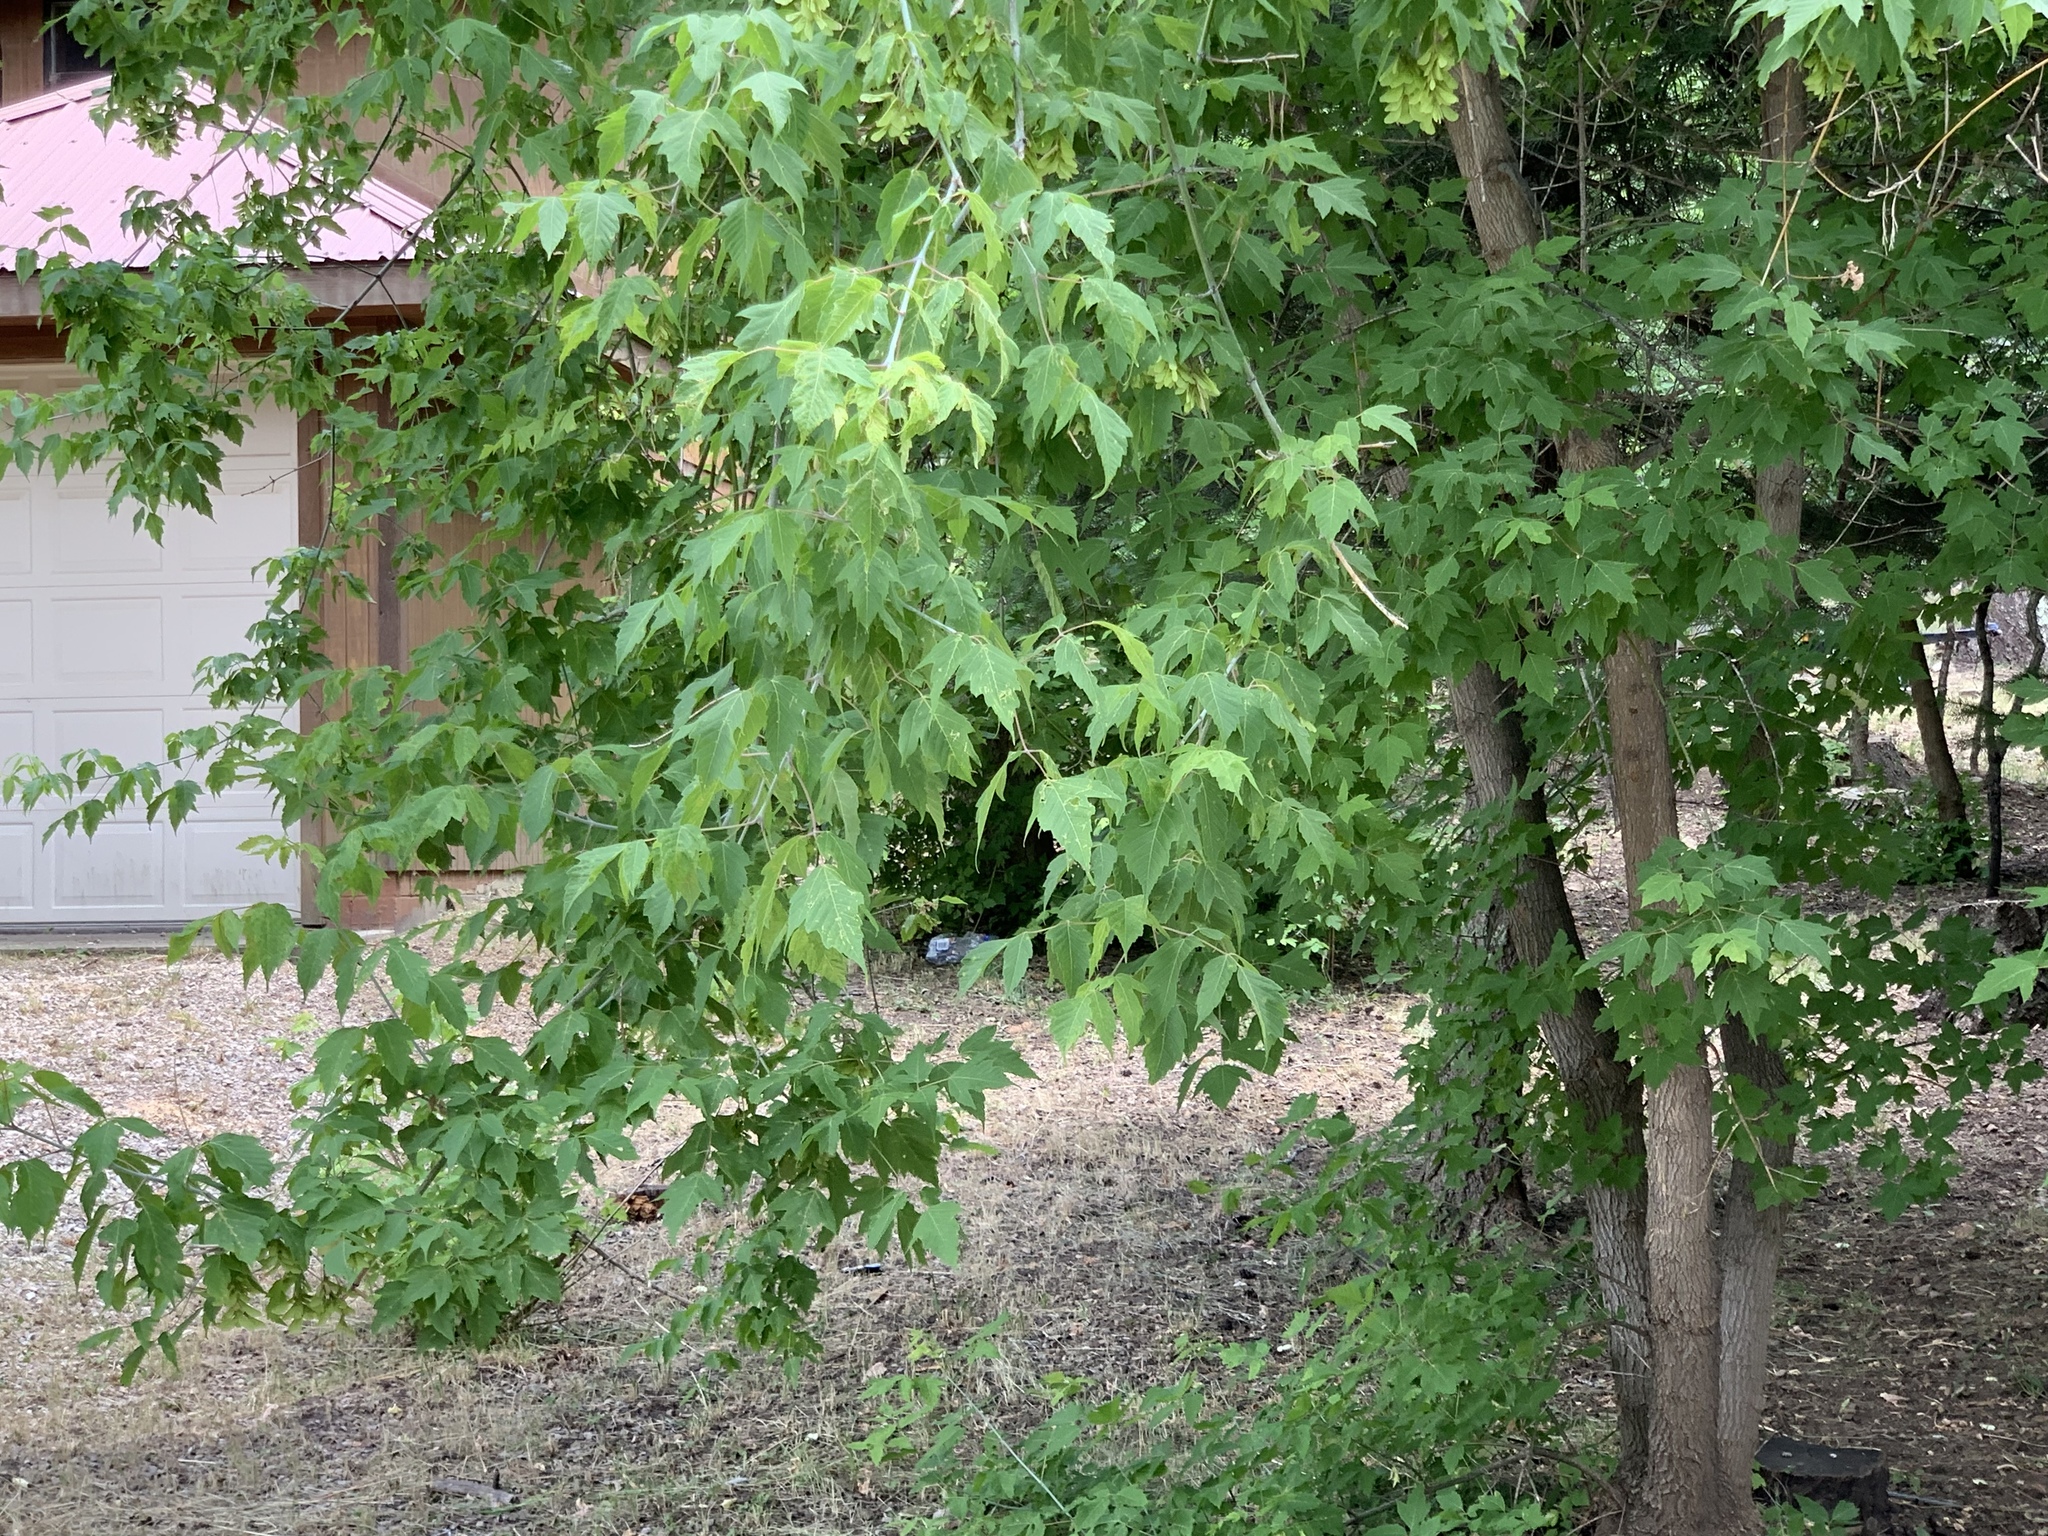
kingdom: Plantae
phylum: Tracheophyta
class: Magnoliopsida
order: Sapindales
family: Sapindaceae
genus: Acer
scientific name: Acer negundo
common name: Ashleaf maple
